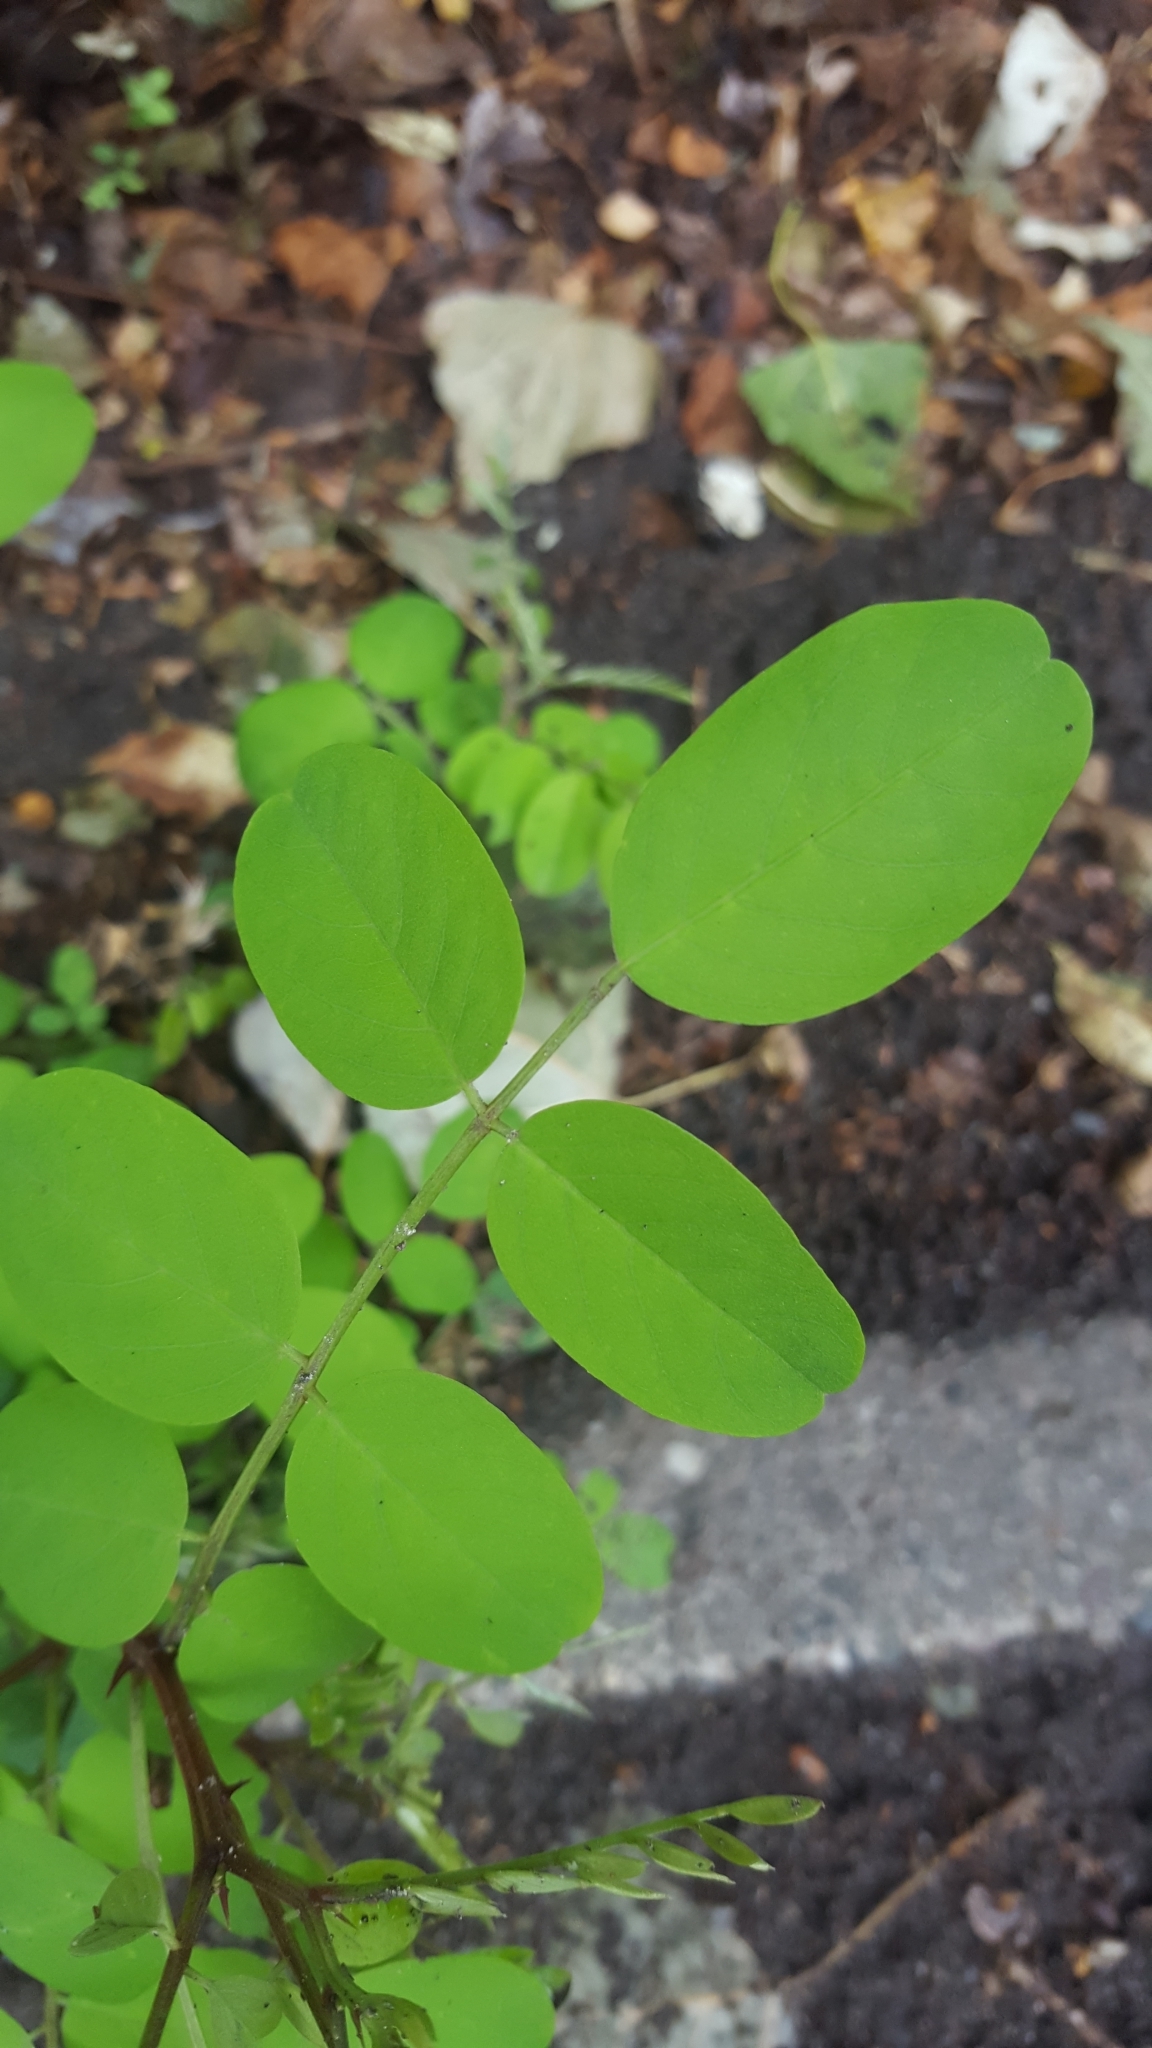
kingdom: Plantae
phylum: Tracheophyta
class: Magnoliopsida
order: Fabales
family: Fabaceae
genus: Robinia
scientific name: Robinia pseudoacacia
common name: Black locust
